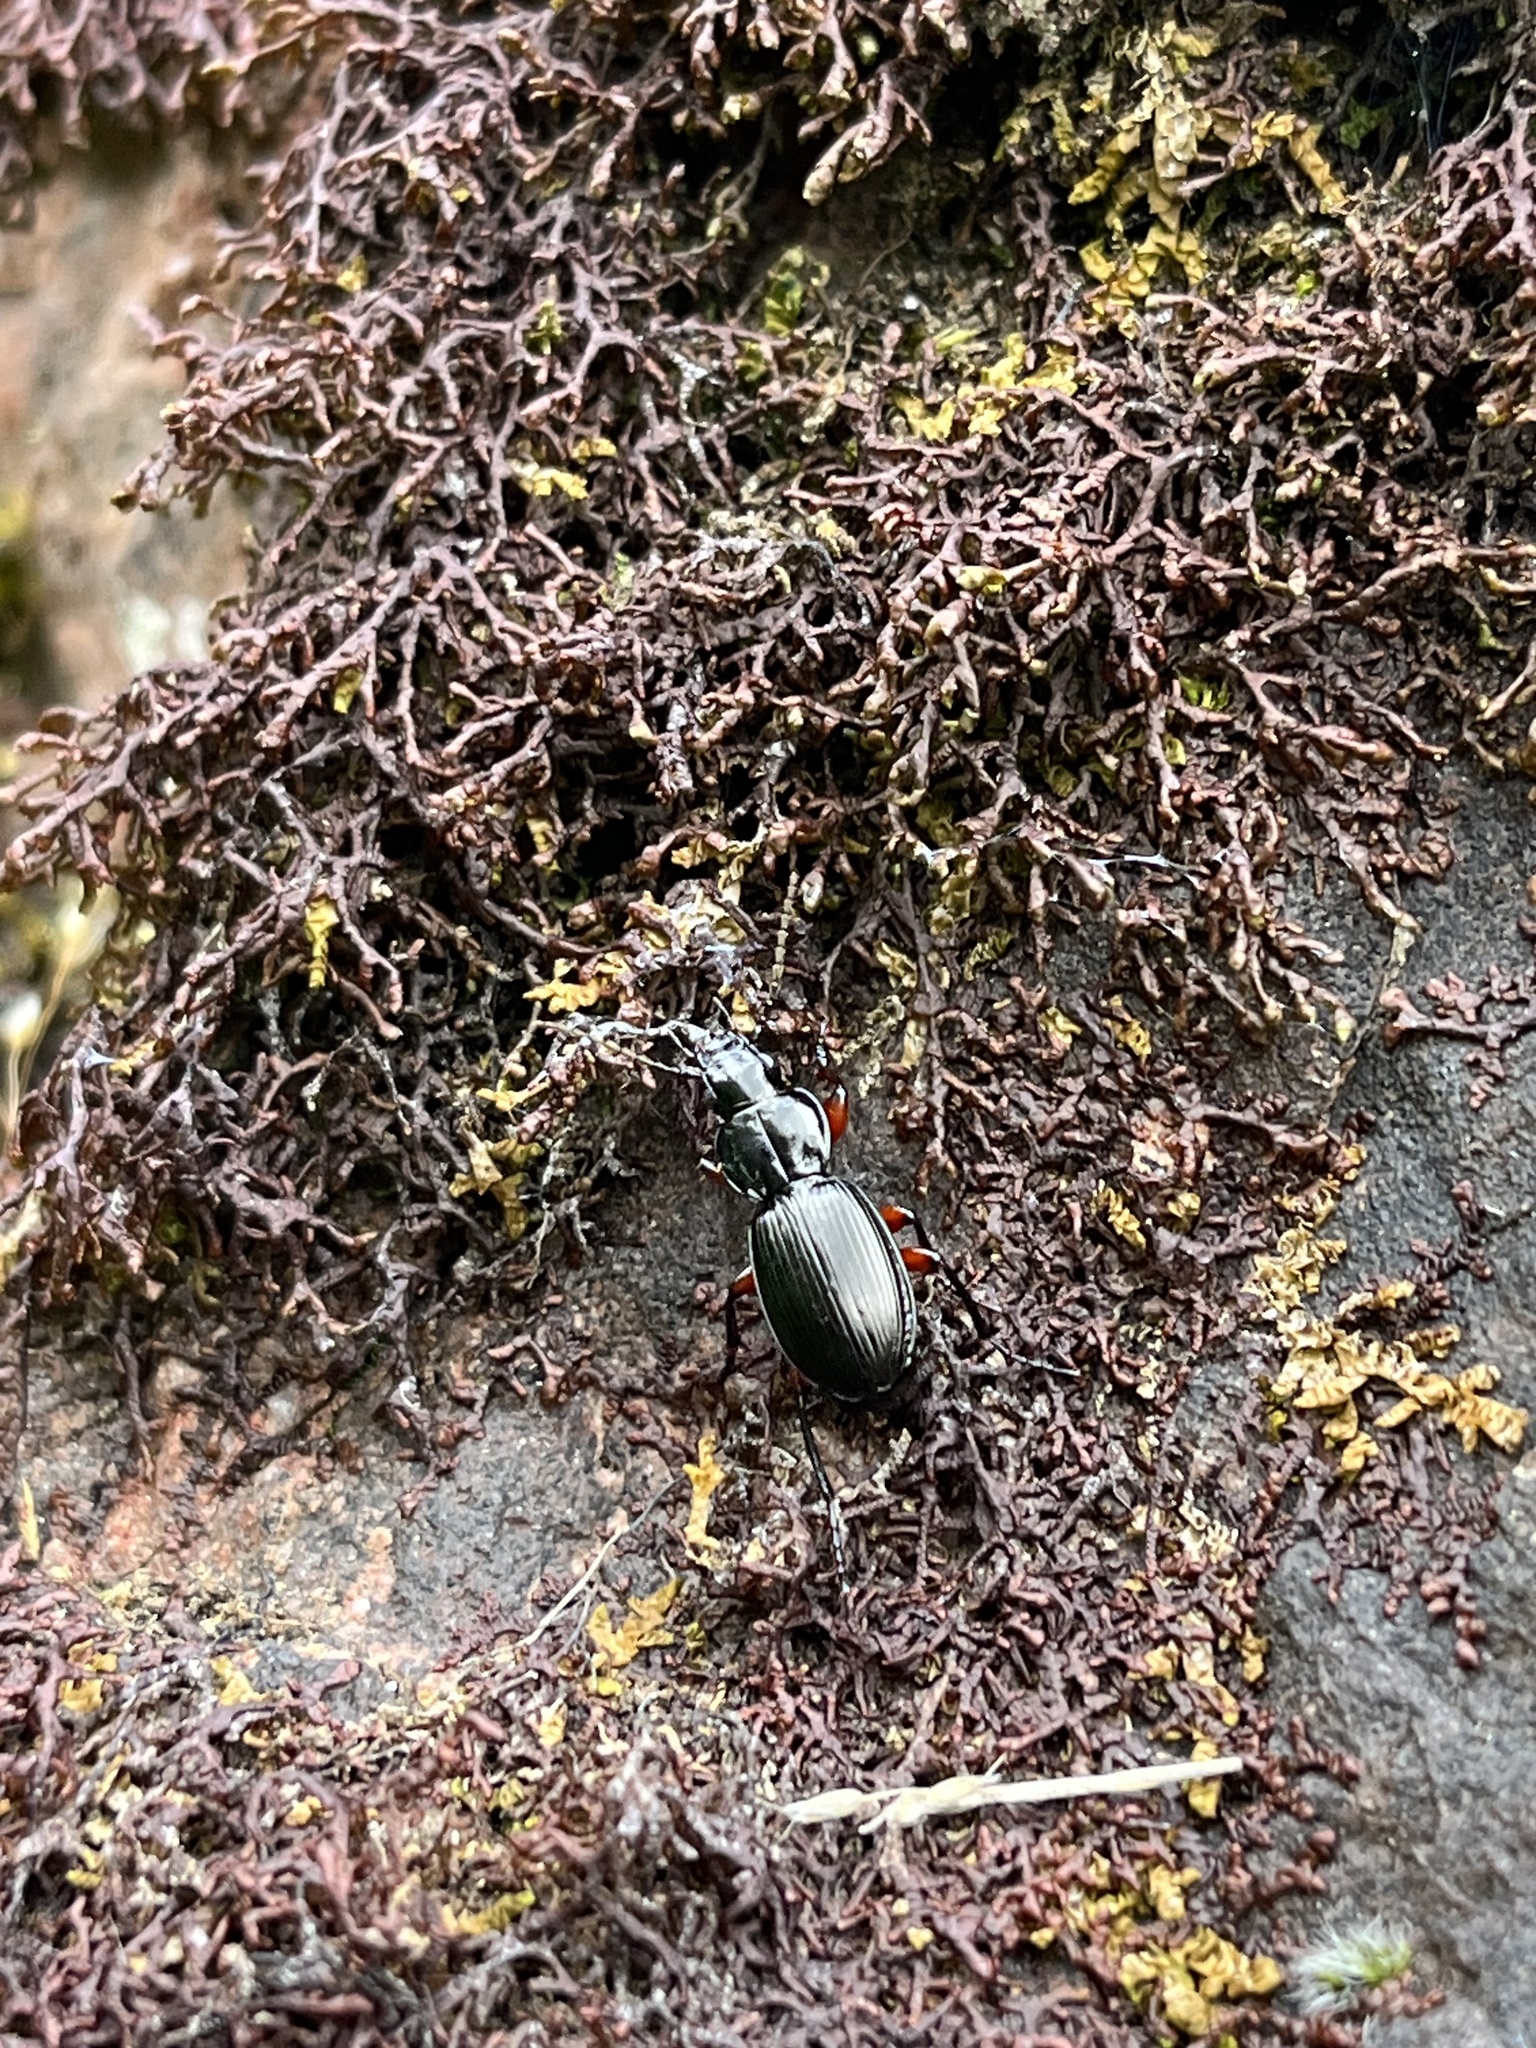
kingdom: Animalia
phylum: Arthropoda
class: Insecta
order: Coleoptera
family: Carabidae
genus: Pterostichus
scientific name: Pterostichus madidus
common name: Black clock
